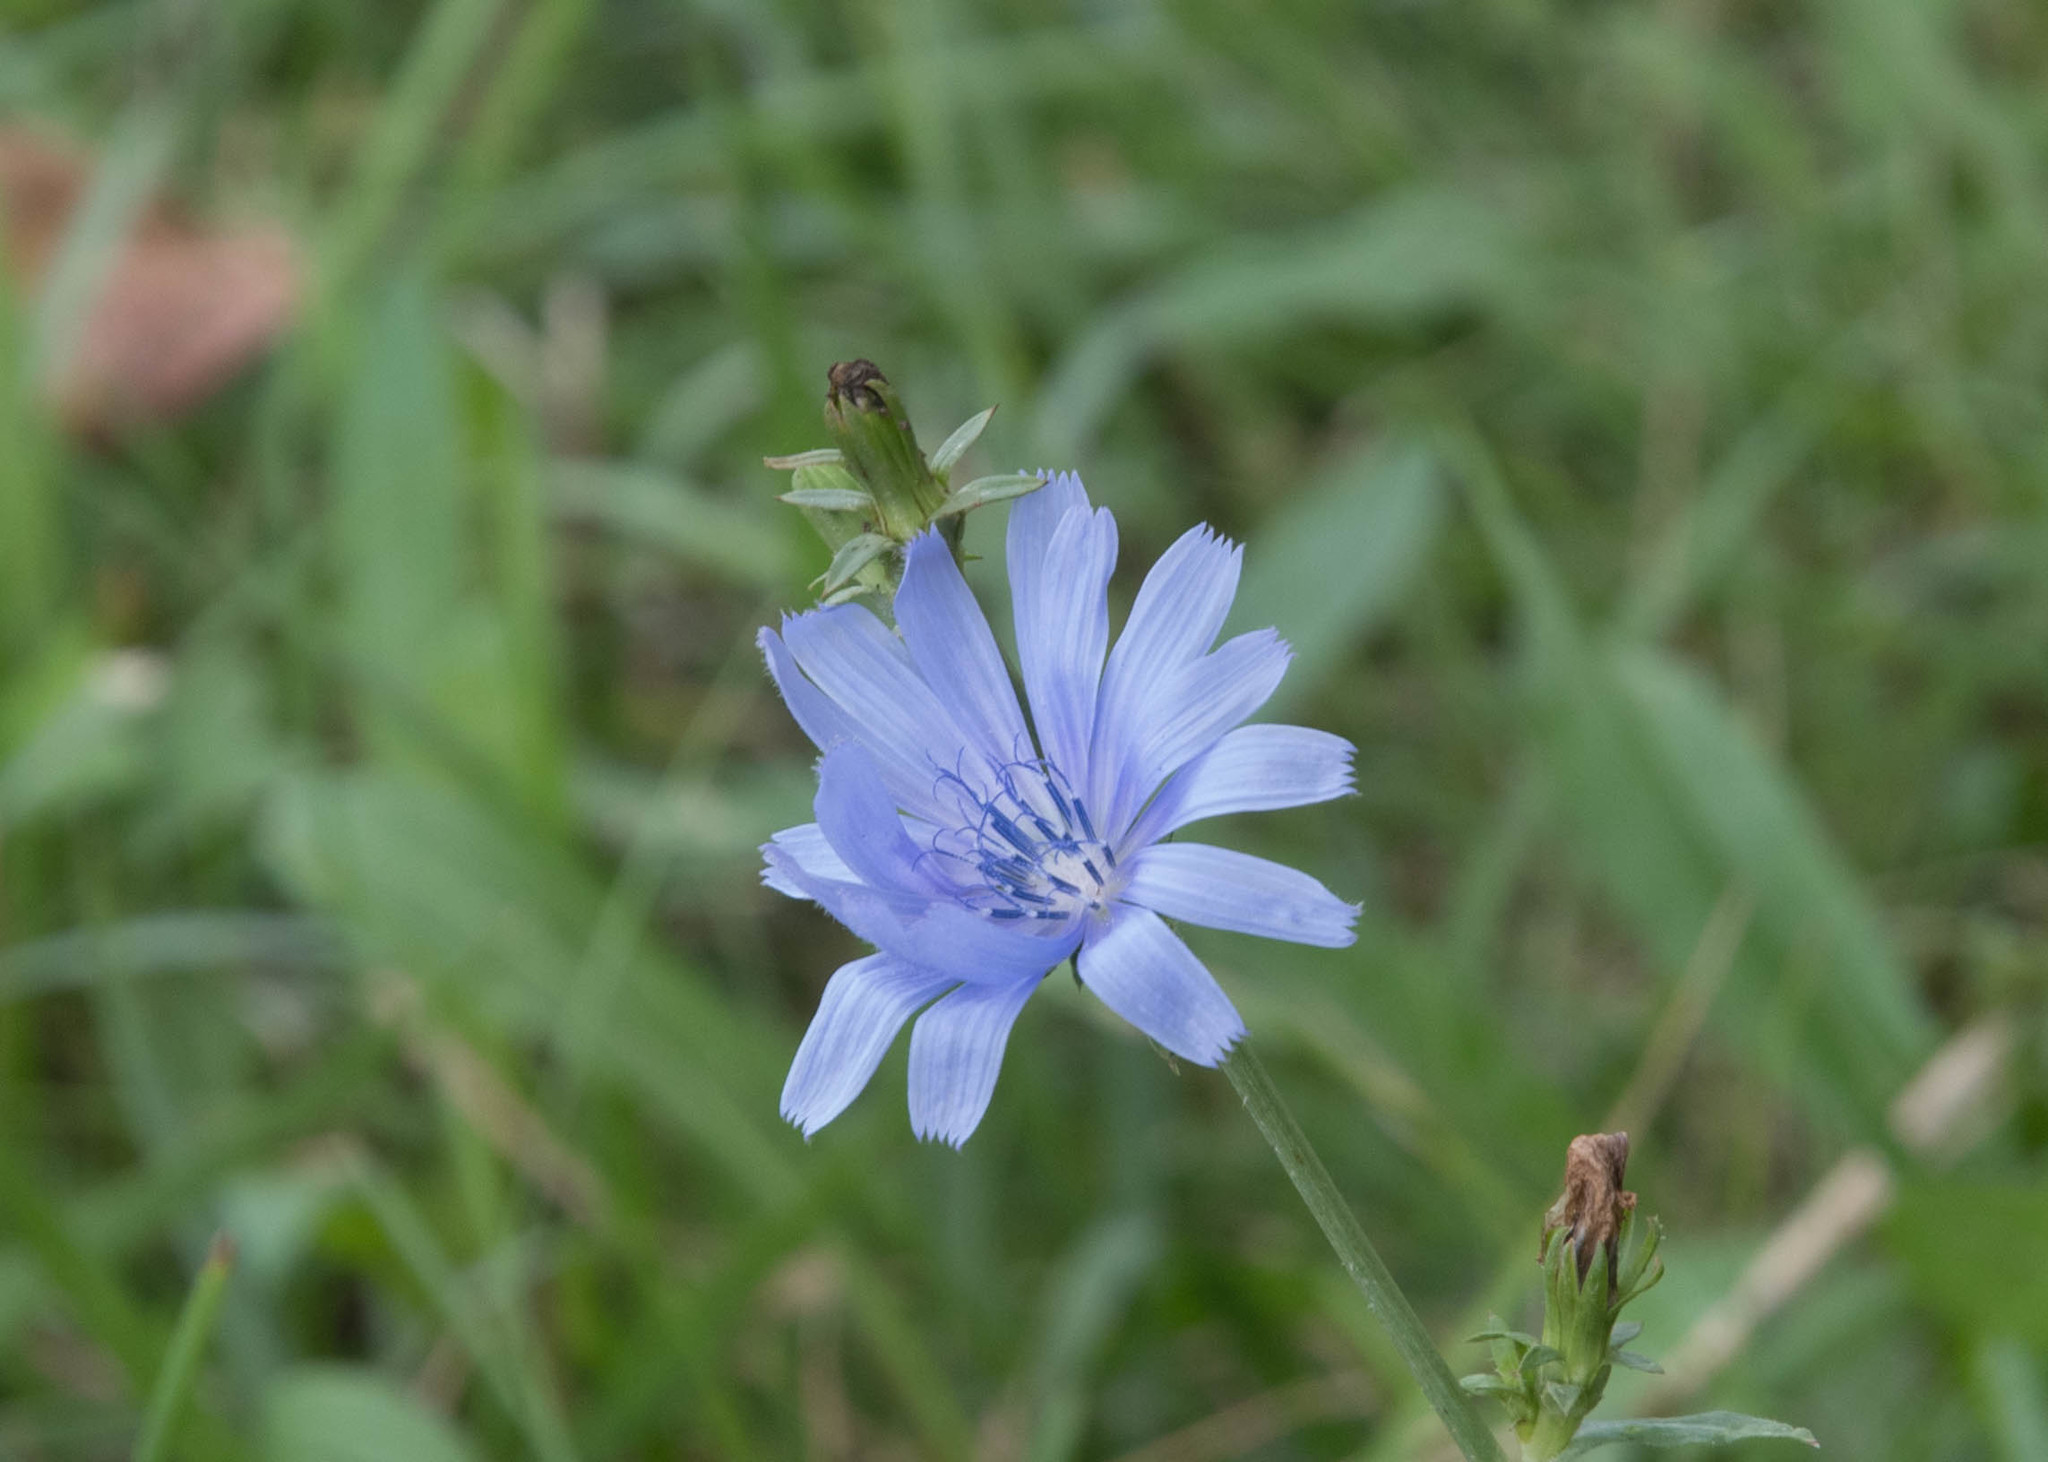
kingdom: Plantae
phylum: Tracheophyta
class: Magnoliopsida
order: Asterales
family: Asteraceae
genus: Cichorium
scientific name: Cichorium intybus
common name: Chicory
